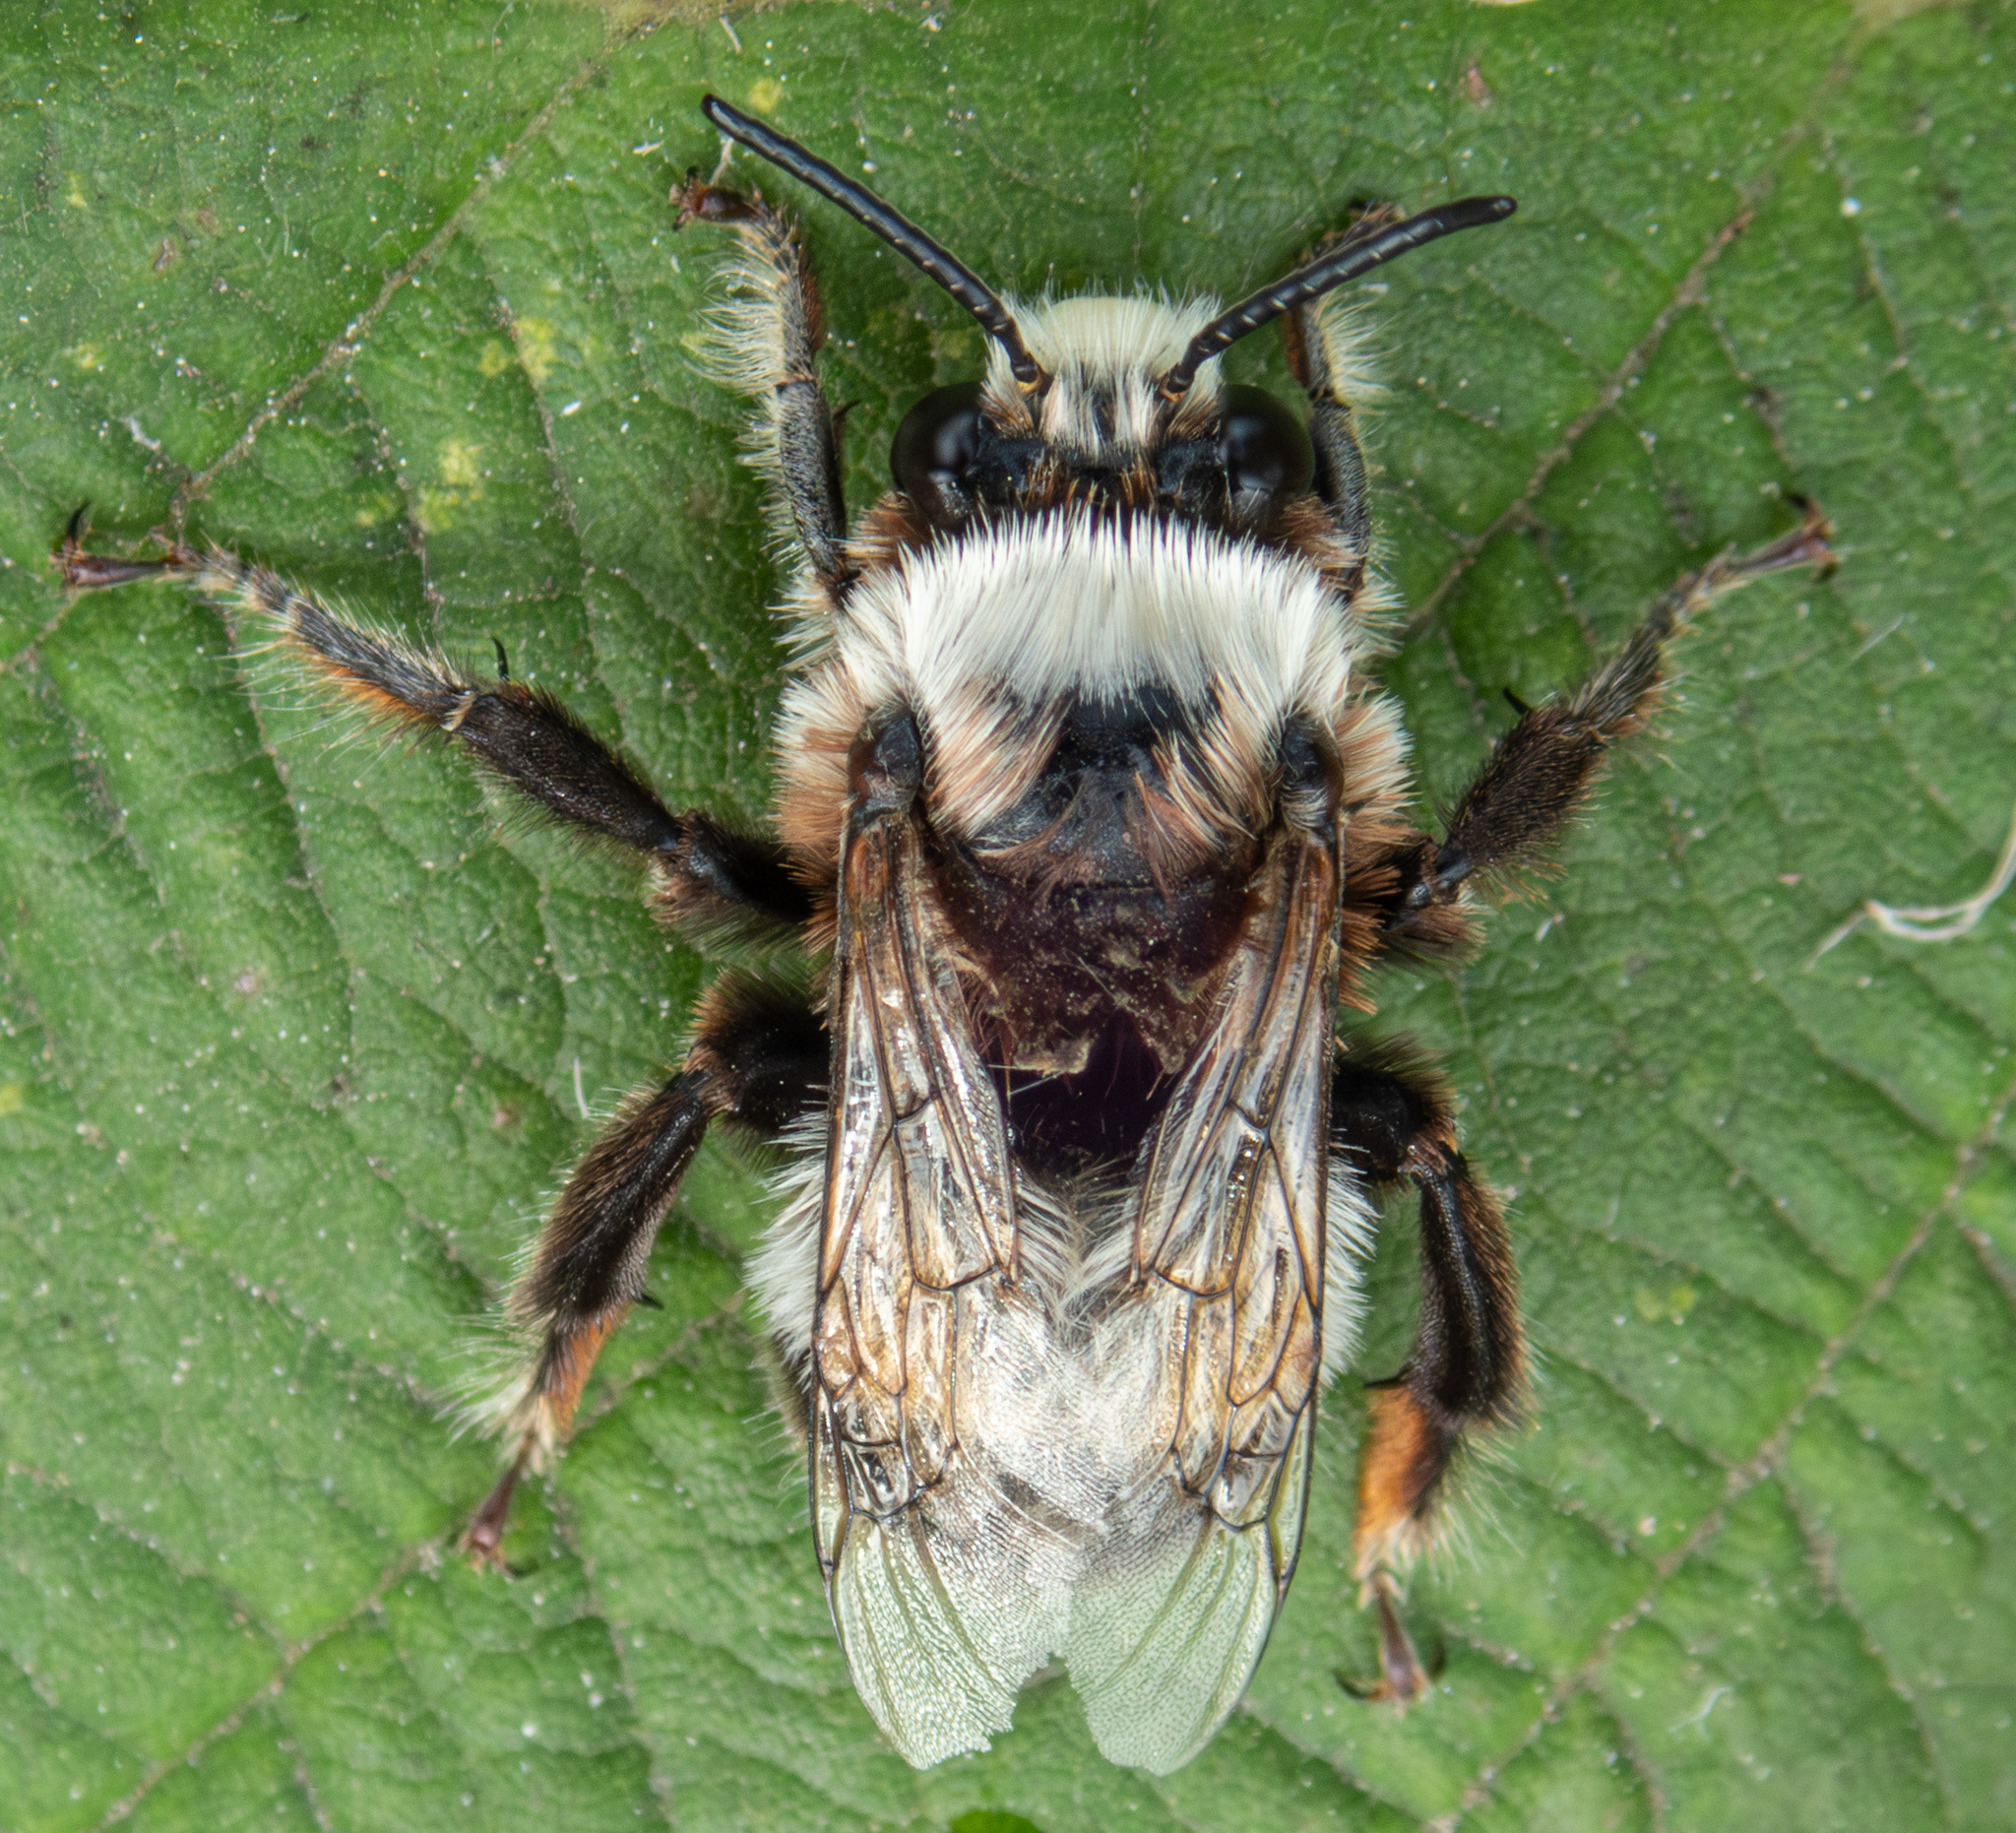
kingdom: Animalia
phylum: Arthropoda
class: Insecta
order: Hymenoptera
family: Apidae
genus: Anthophora
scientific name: Anthophora bomboides
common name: Bumble-bee-mimic digger bee
